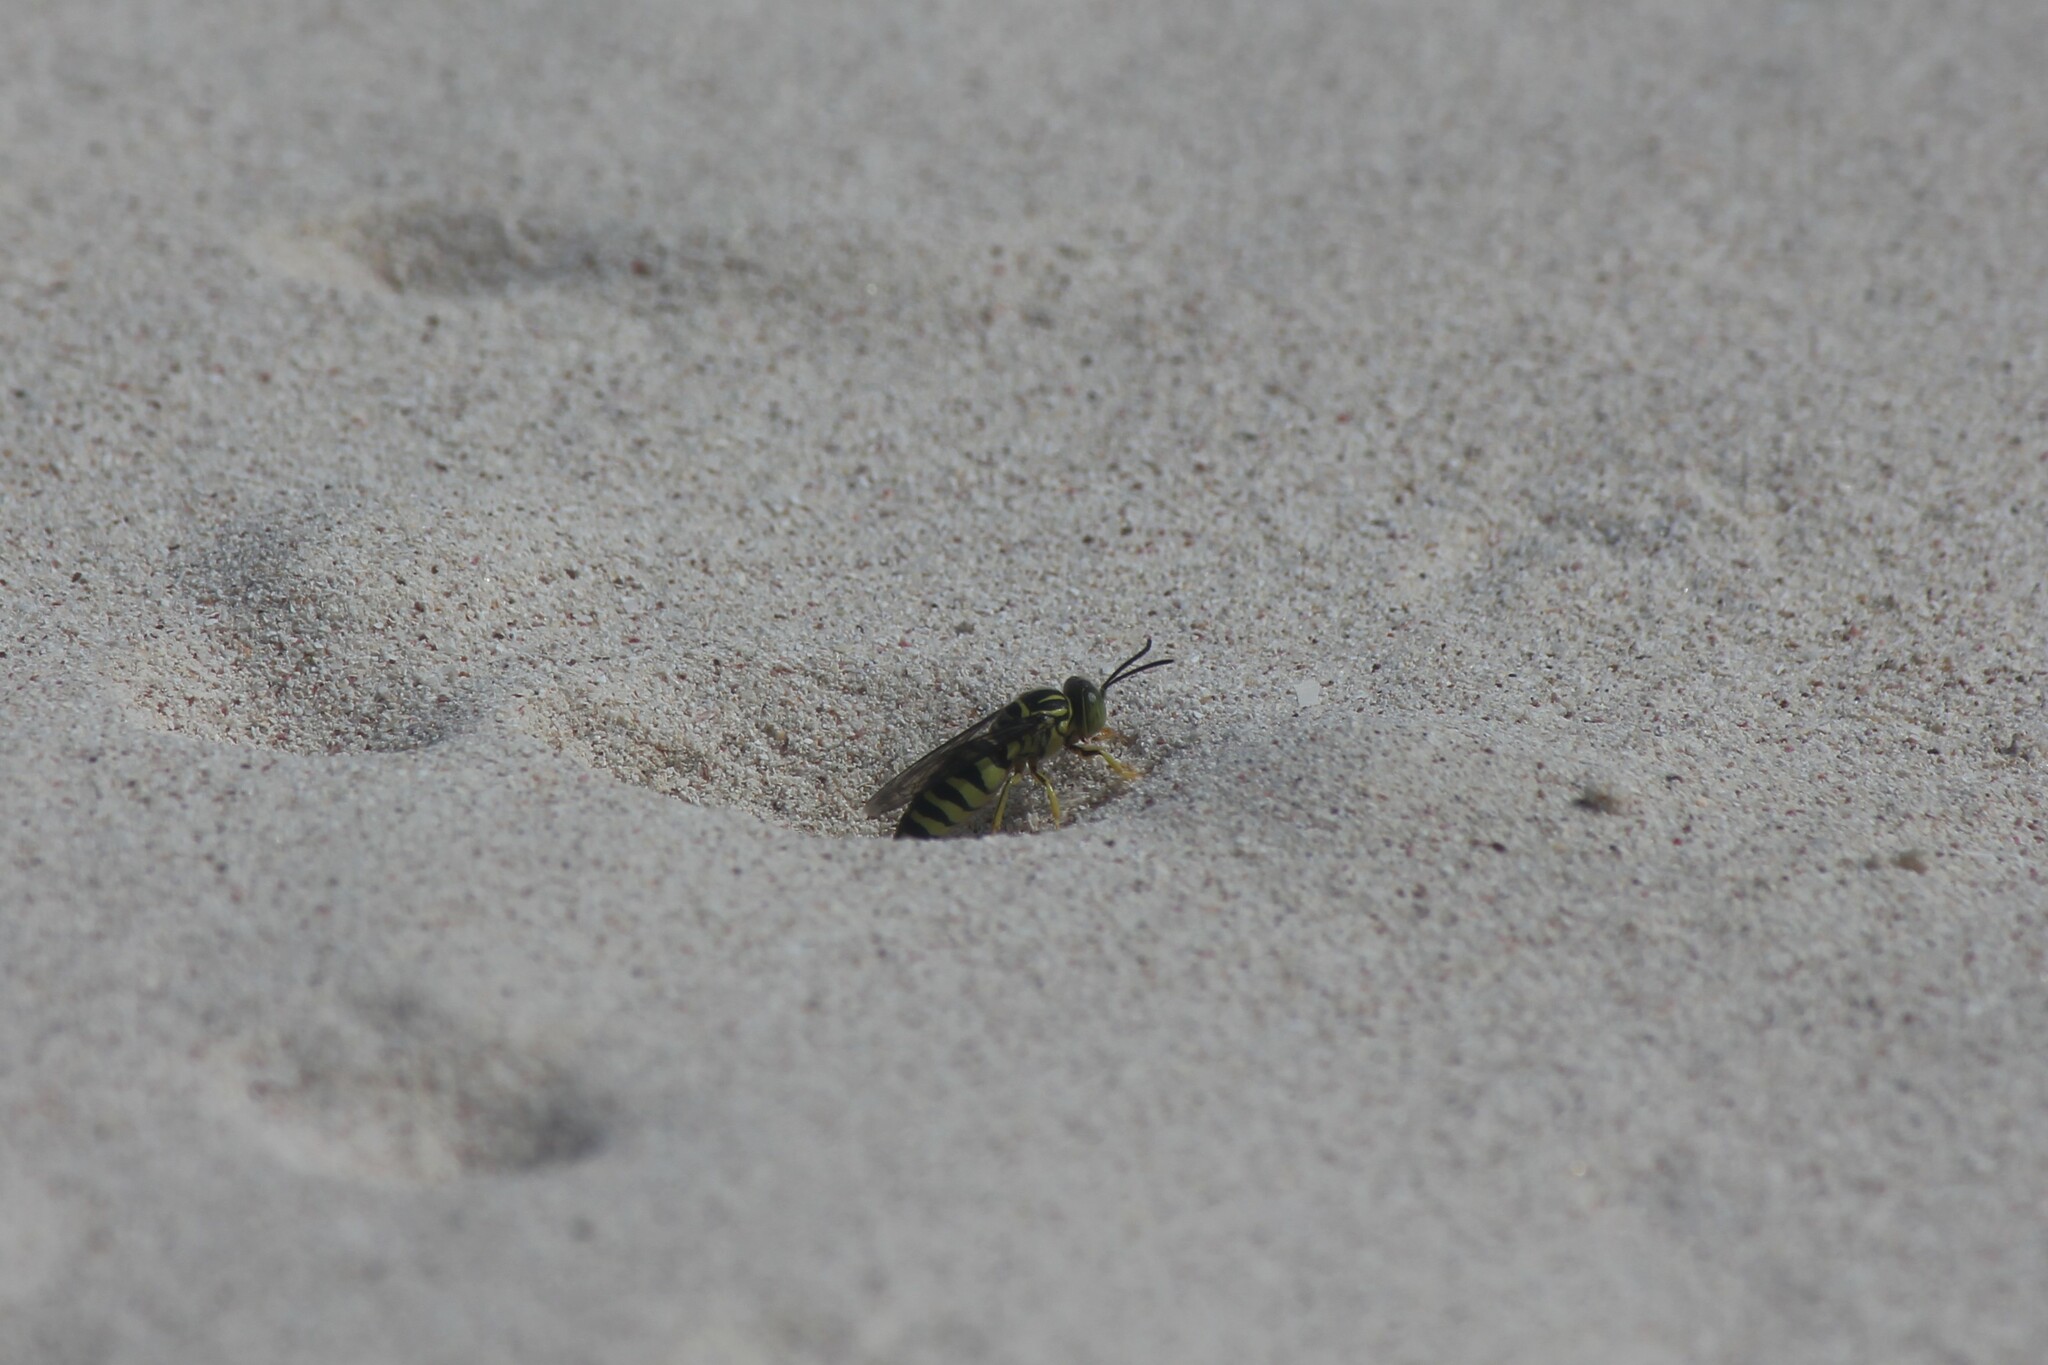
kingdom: Animalia
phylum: Arthropoda
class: Insecta
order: Hymenoptera
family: Crabronidae
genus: Bicyrtes
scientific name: Bicyrtes variegatus
